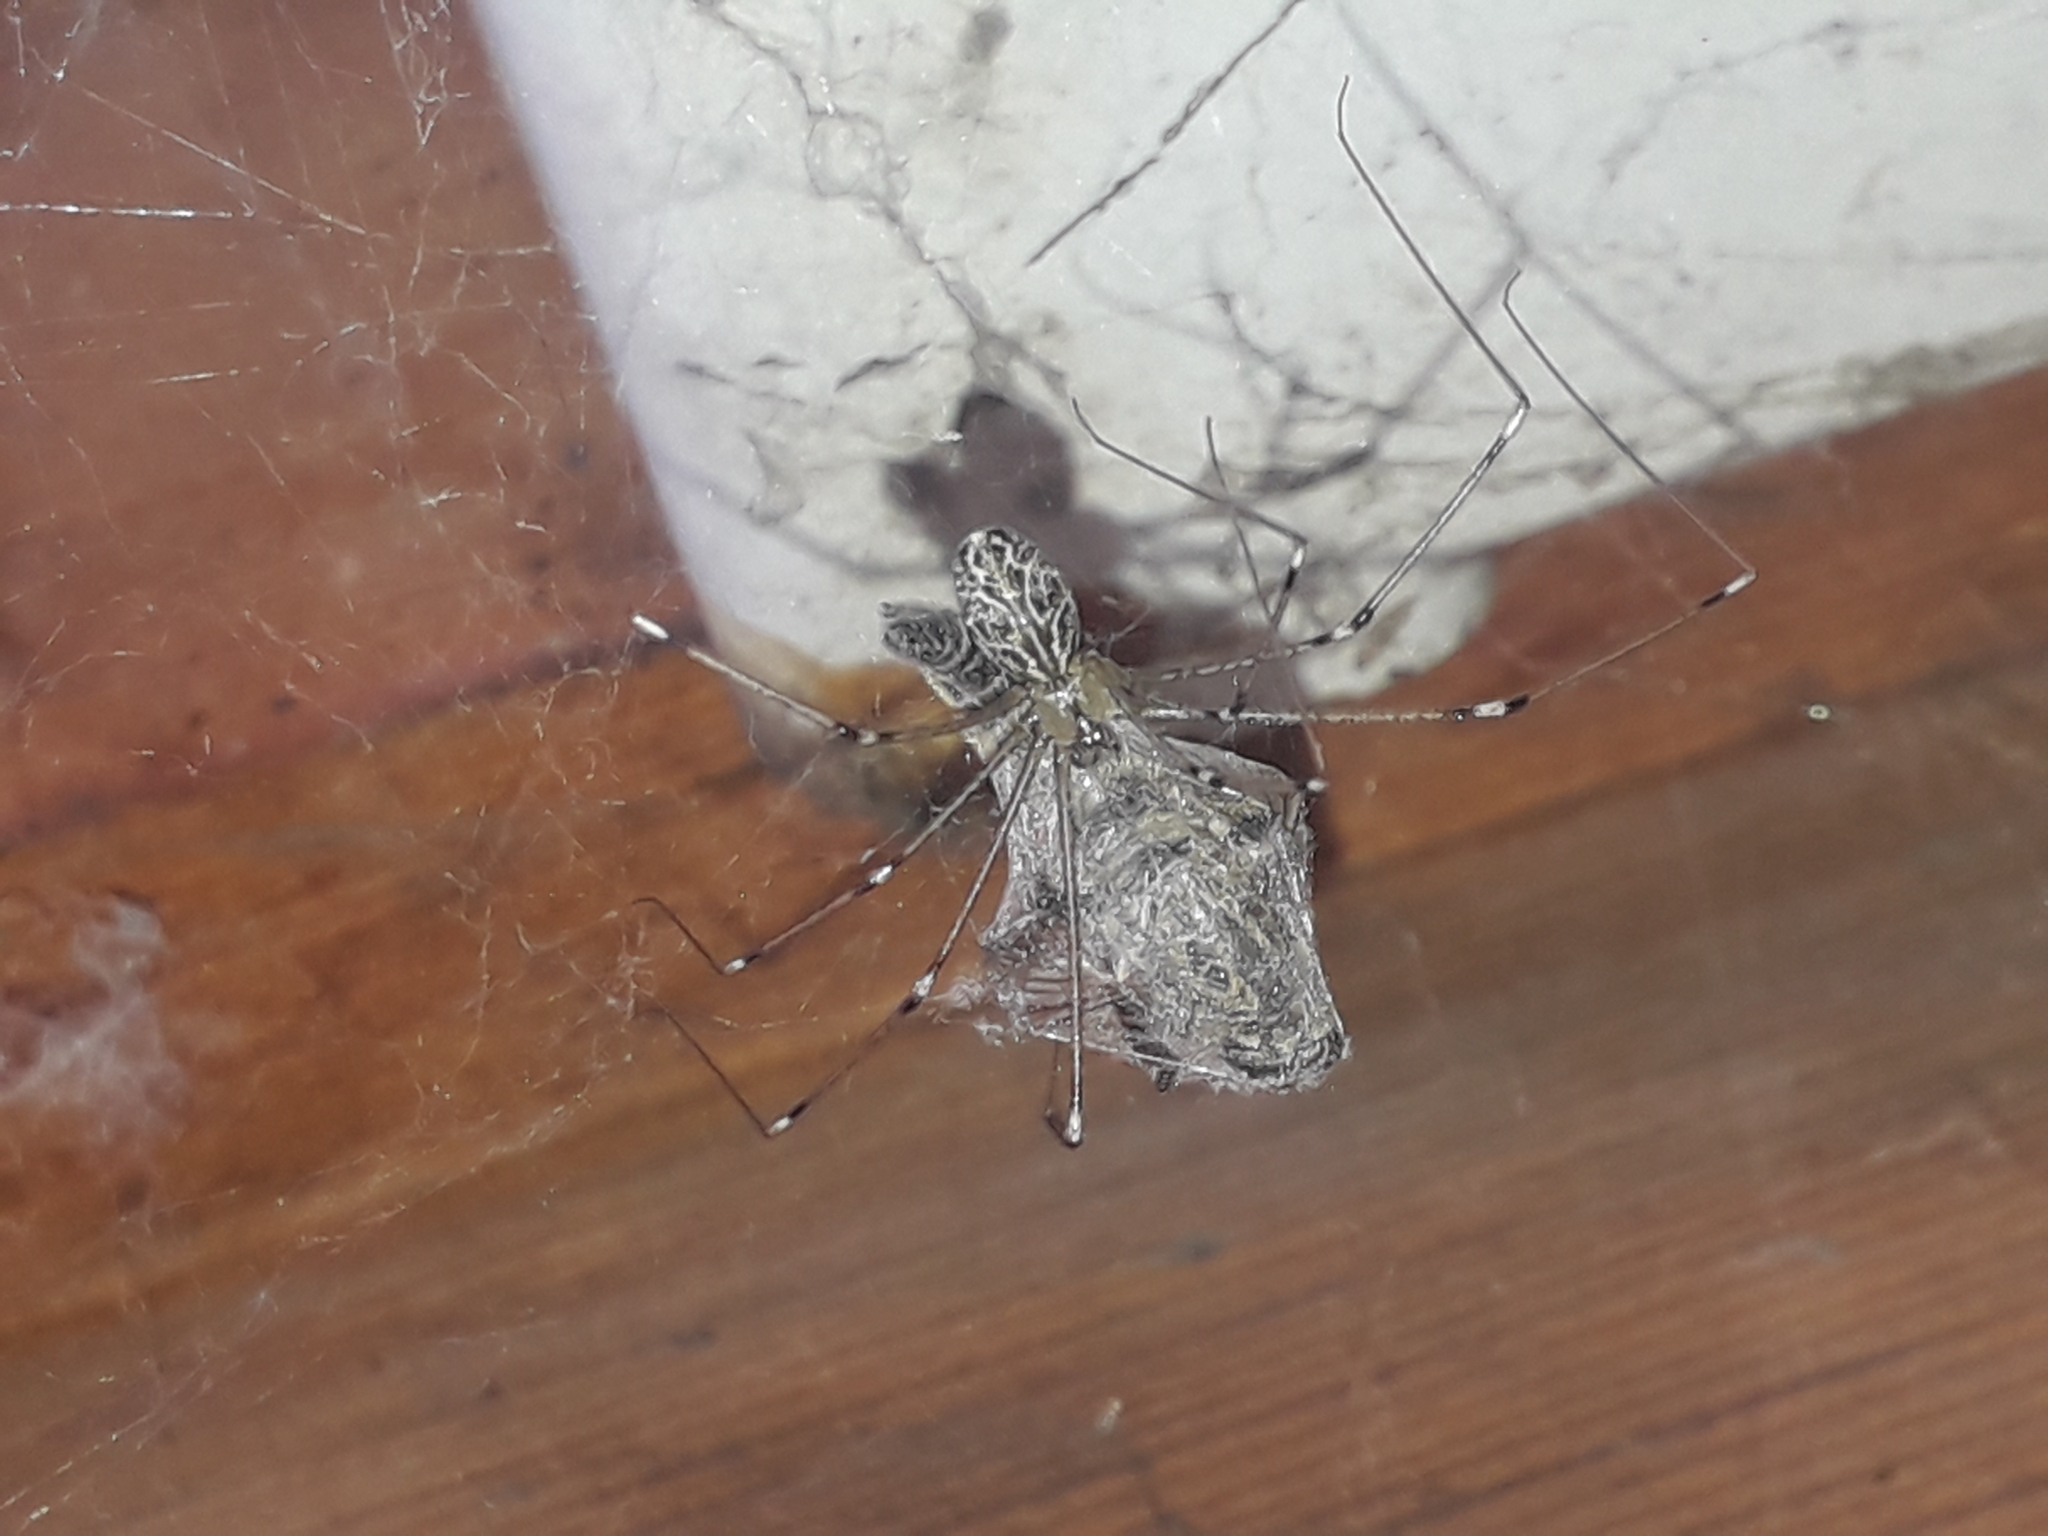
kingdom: Animalia
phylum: Arthropoda
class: Arachnida
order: Araneae
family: Pholcidae
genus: Holocnemus
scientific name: Holocnemus pluchei
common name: Marbled cellar spider
